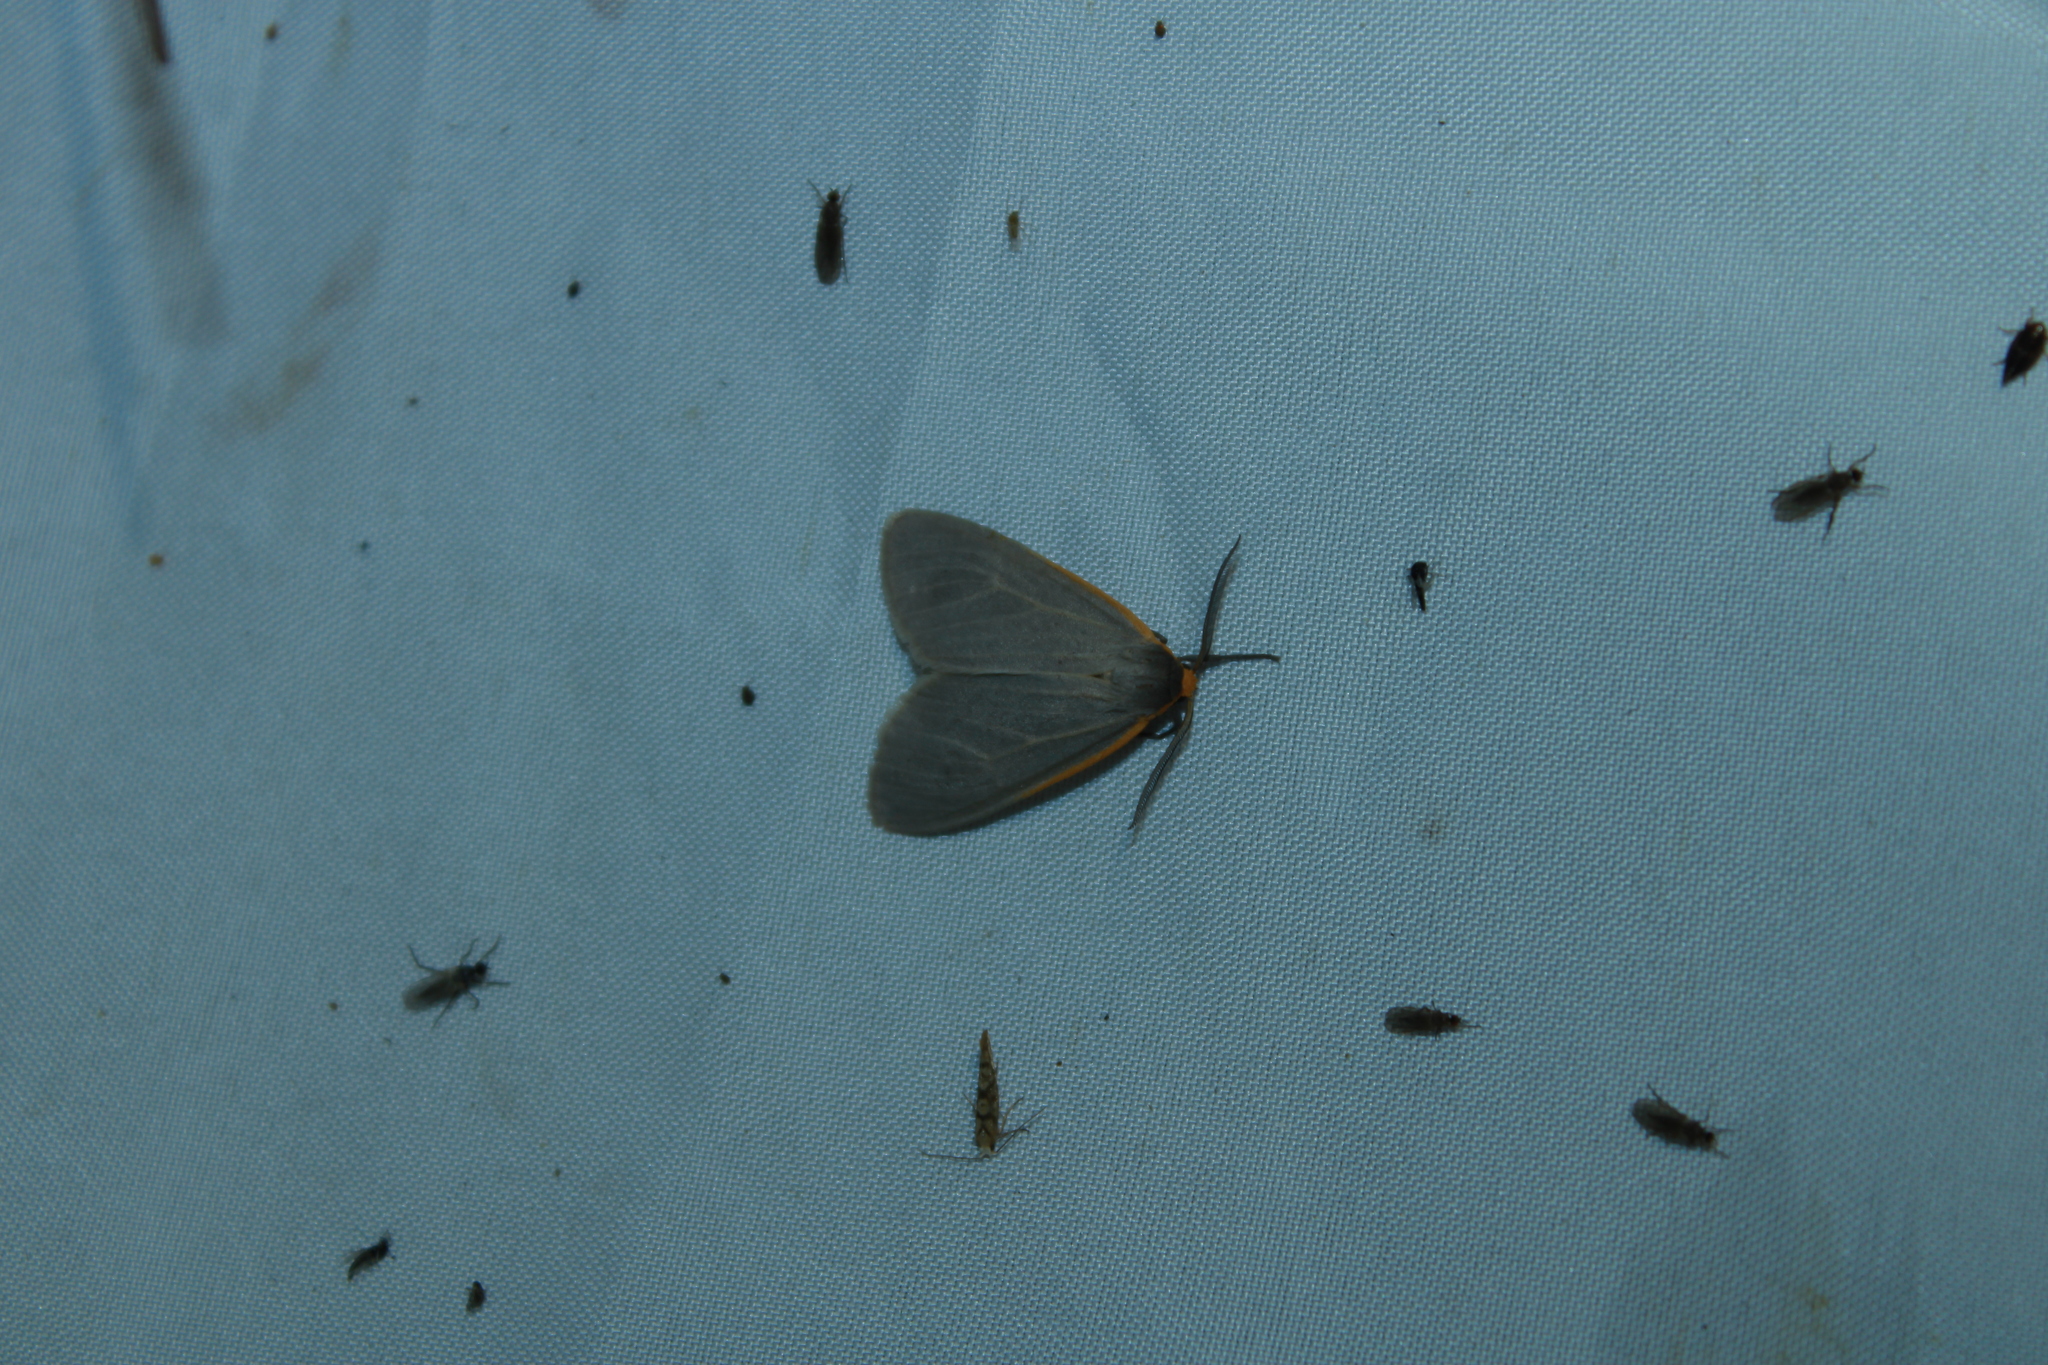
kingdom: Animalia
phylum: Arthropoda
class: Insecta
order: Lepidoptera
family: Erebidae
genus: Cycnia
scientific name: Cycnia collaris
